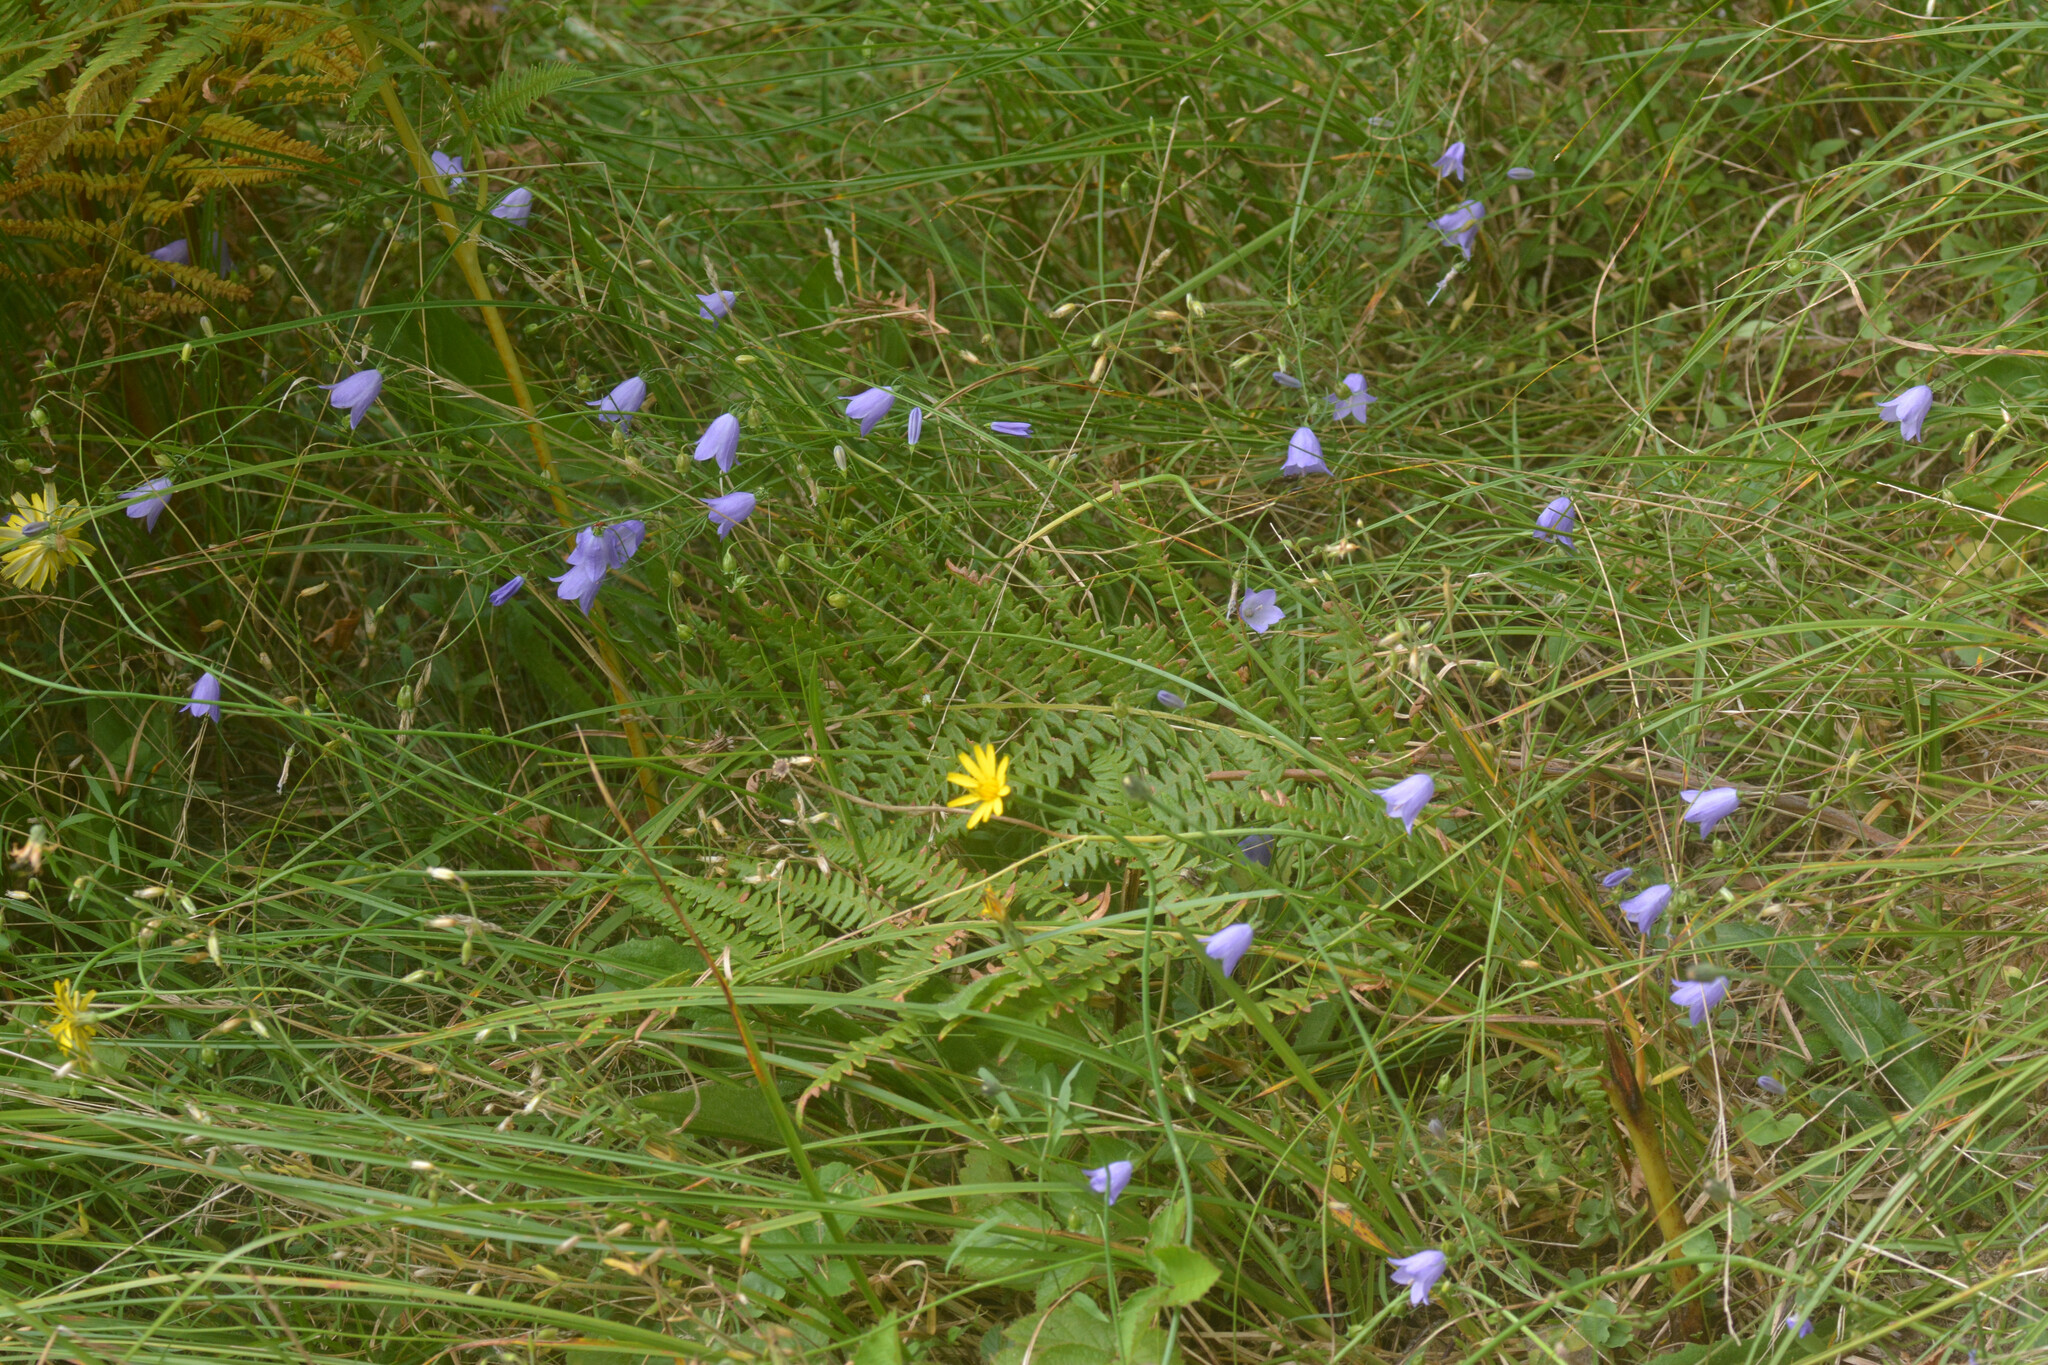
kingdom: Plantae
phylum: Tracheophyta
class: Magnoliopsida
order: Asterales
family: Campanulaceae
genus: Campanula
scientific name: Campanula rotundifolia
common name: Harebell
